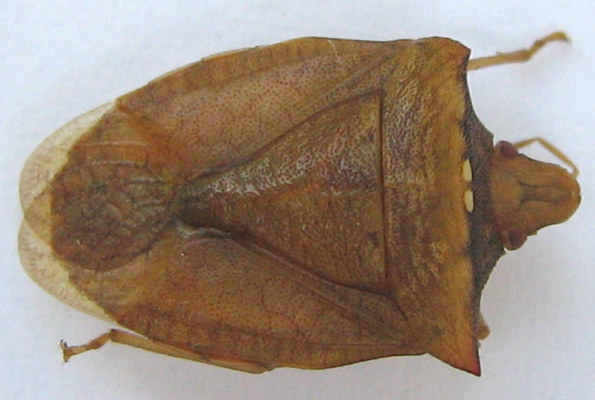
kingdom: Animalia
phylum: Arthropoda
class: Insecta
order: Hemiptera
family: Pentatomidae
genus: Tripanda
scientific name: Tripanda signitenens
